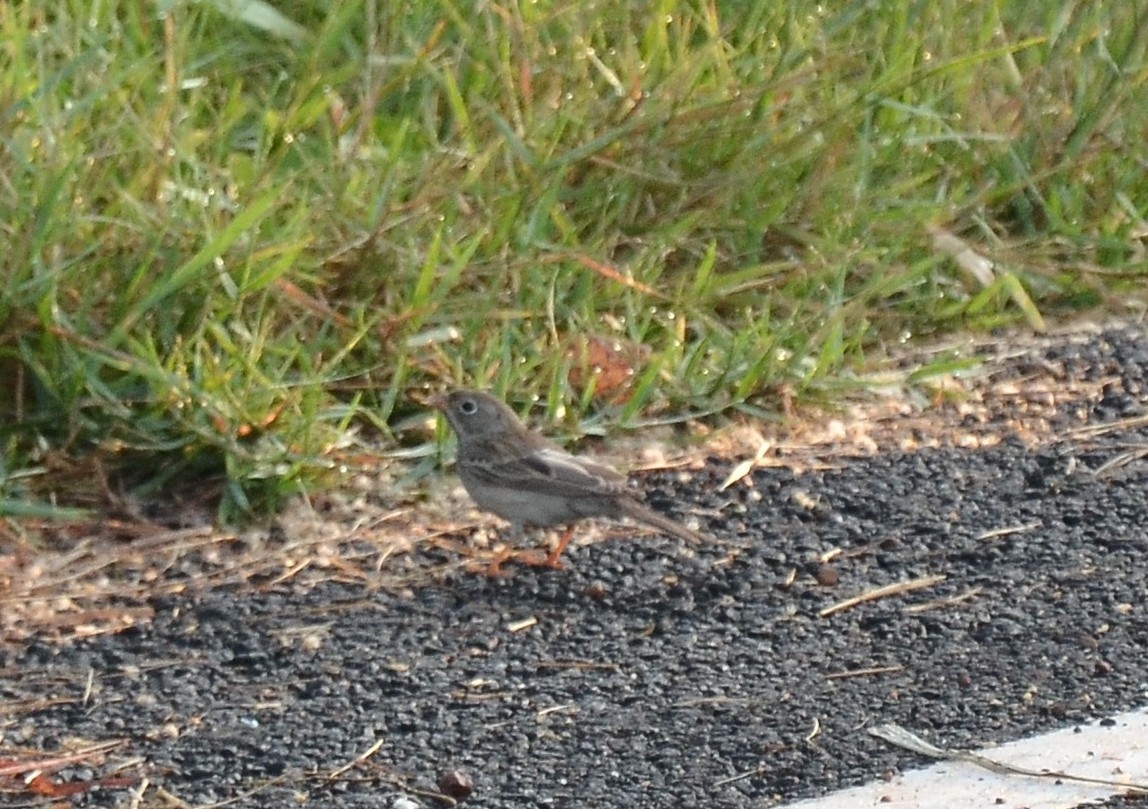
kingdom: Animalia
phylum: Chordata
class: Aves
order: Passeriformes
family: Emberizidae
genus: Emberiza
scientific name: Emberiza buchanani
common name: Grey-necked bunting
